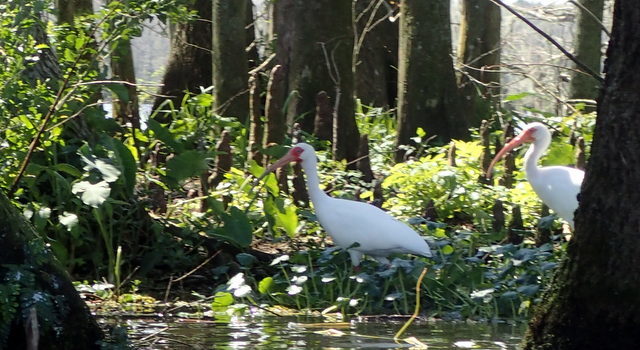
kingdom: Animalia
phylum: Chordata
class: Aves
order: Pelecaniformes
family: Threskiornithidae
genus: Eudocimus
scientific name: Eudocimus albus
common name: White ibis
